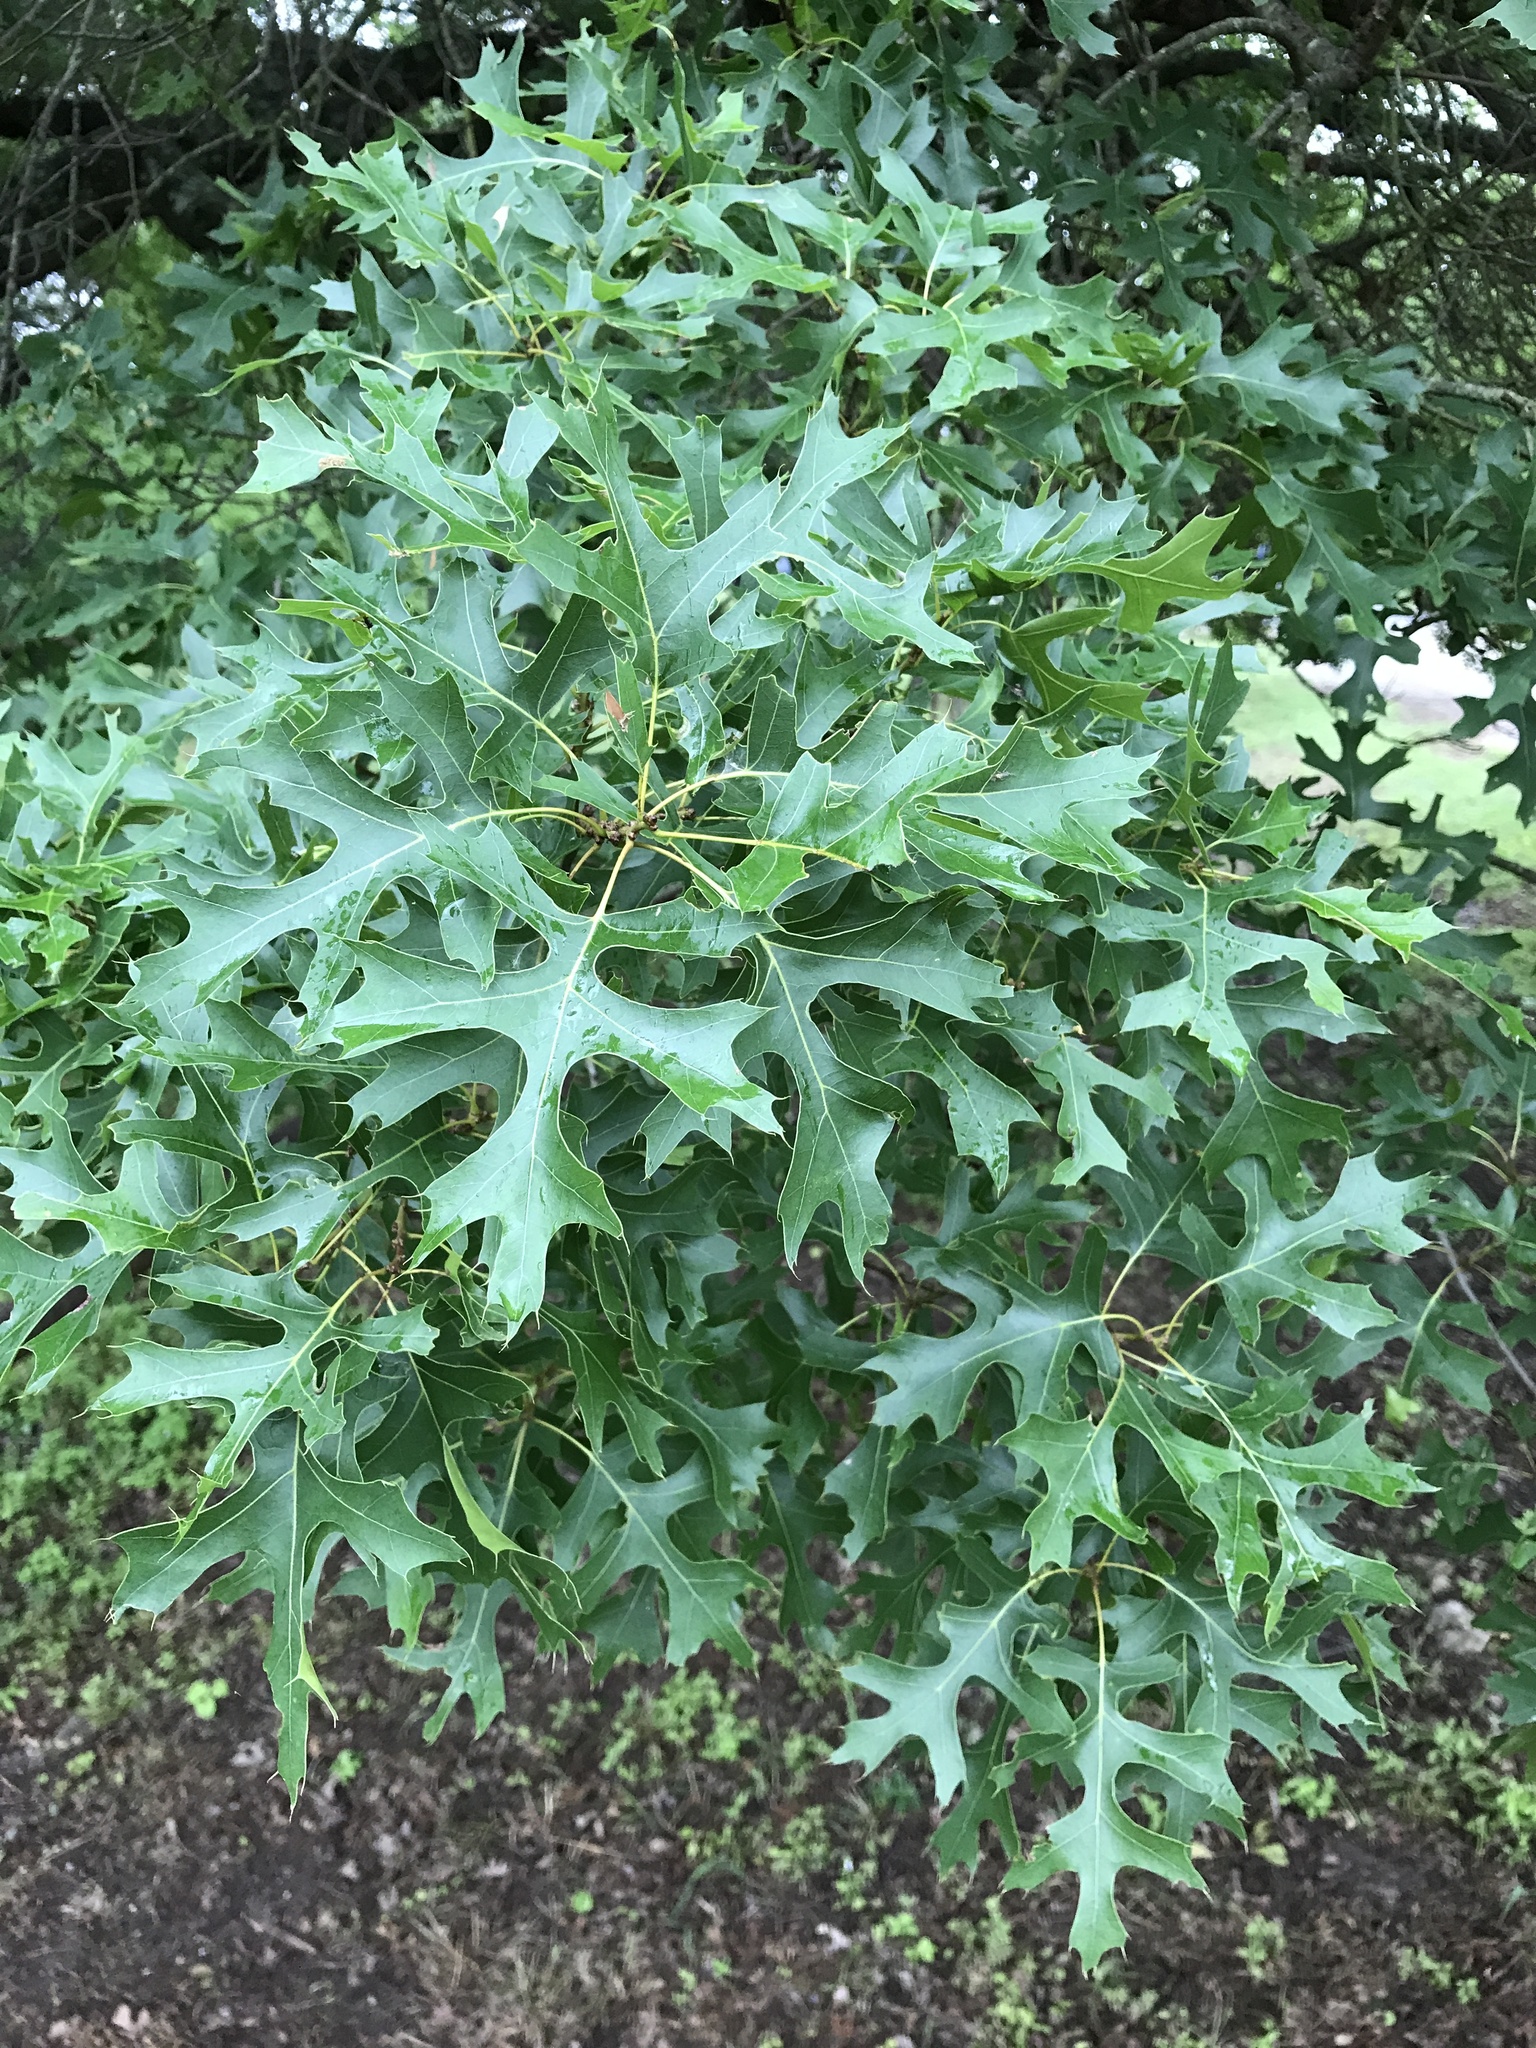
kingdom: Plantae
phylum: Tracheophyta
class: Magnoliopsida
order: Fagales
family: Fagaceae
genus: Quercus
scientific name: Quercus shumardii
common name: Shumard oak
